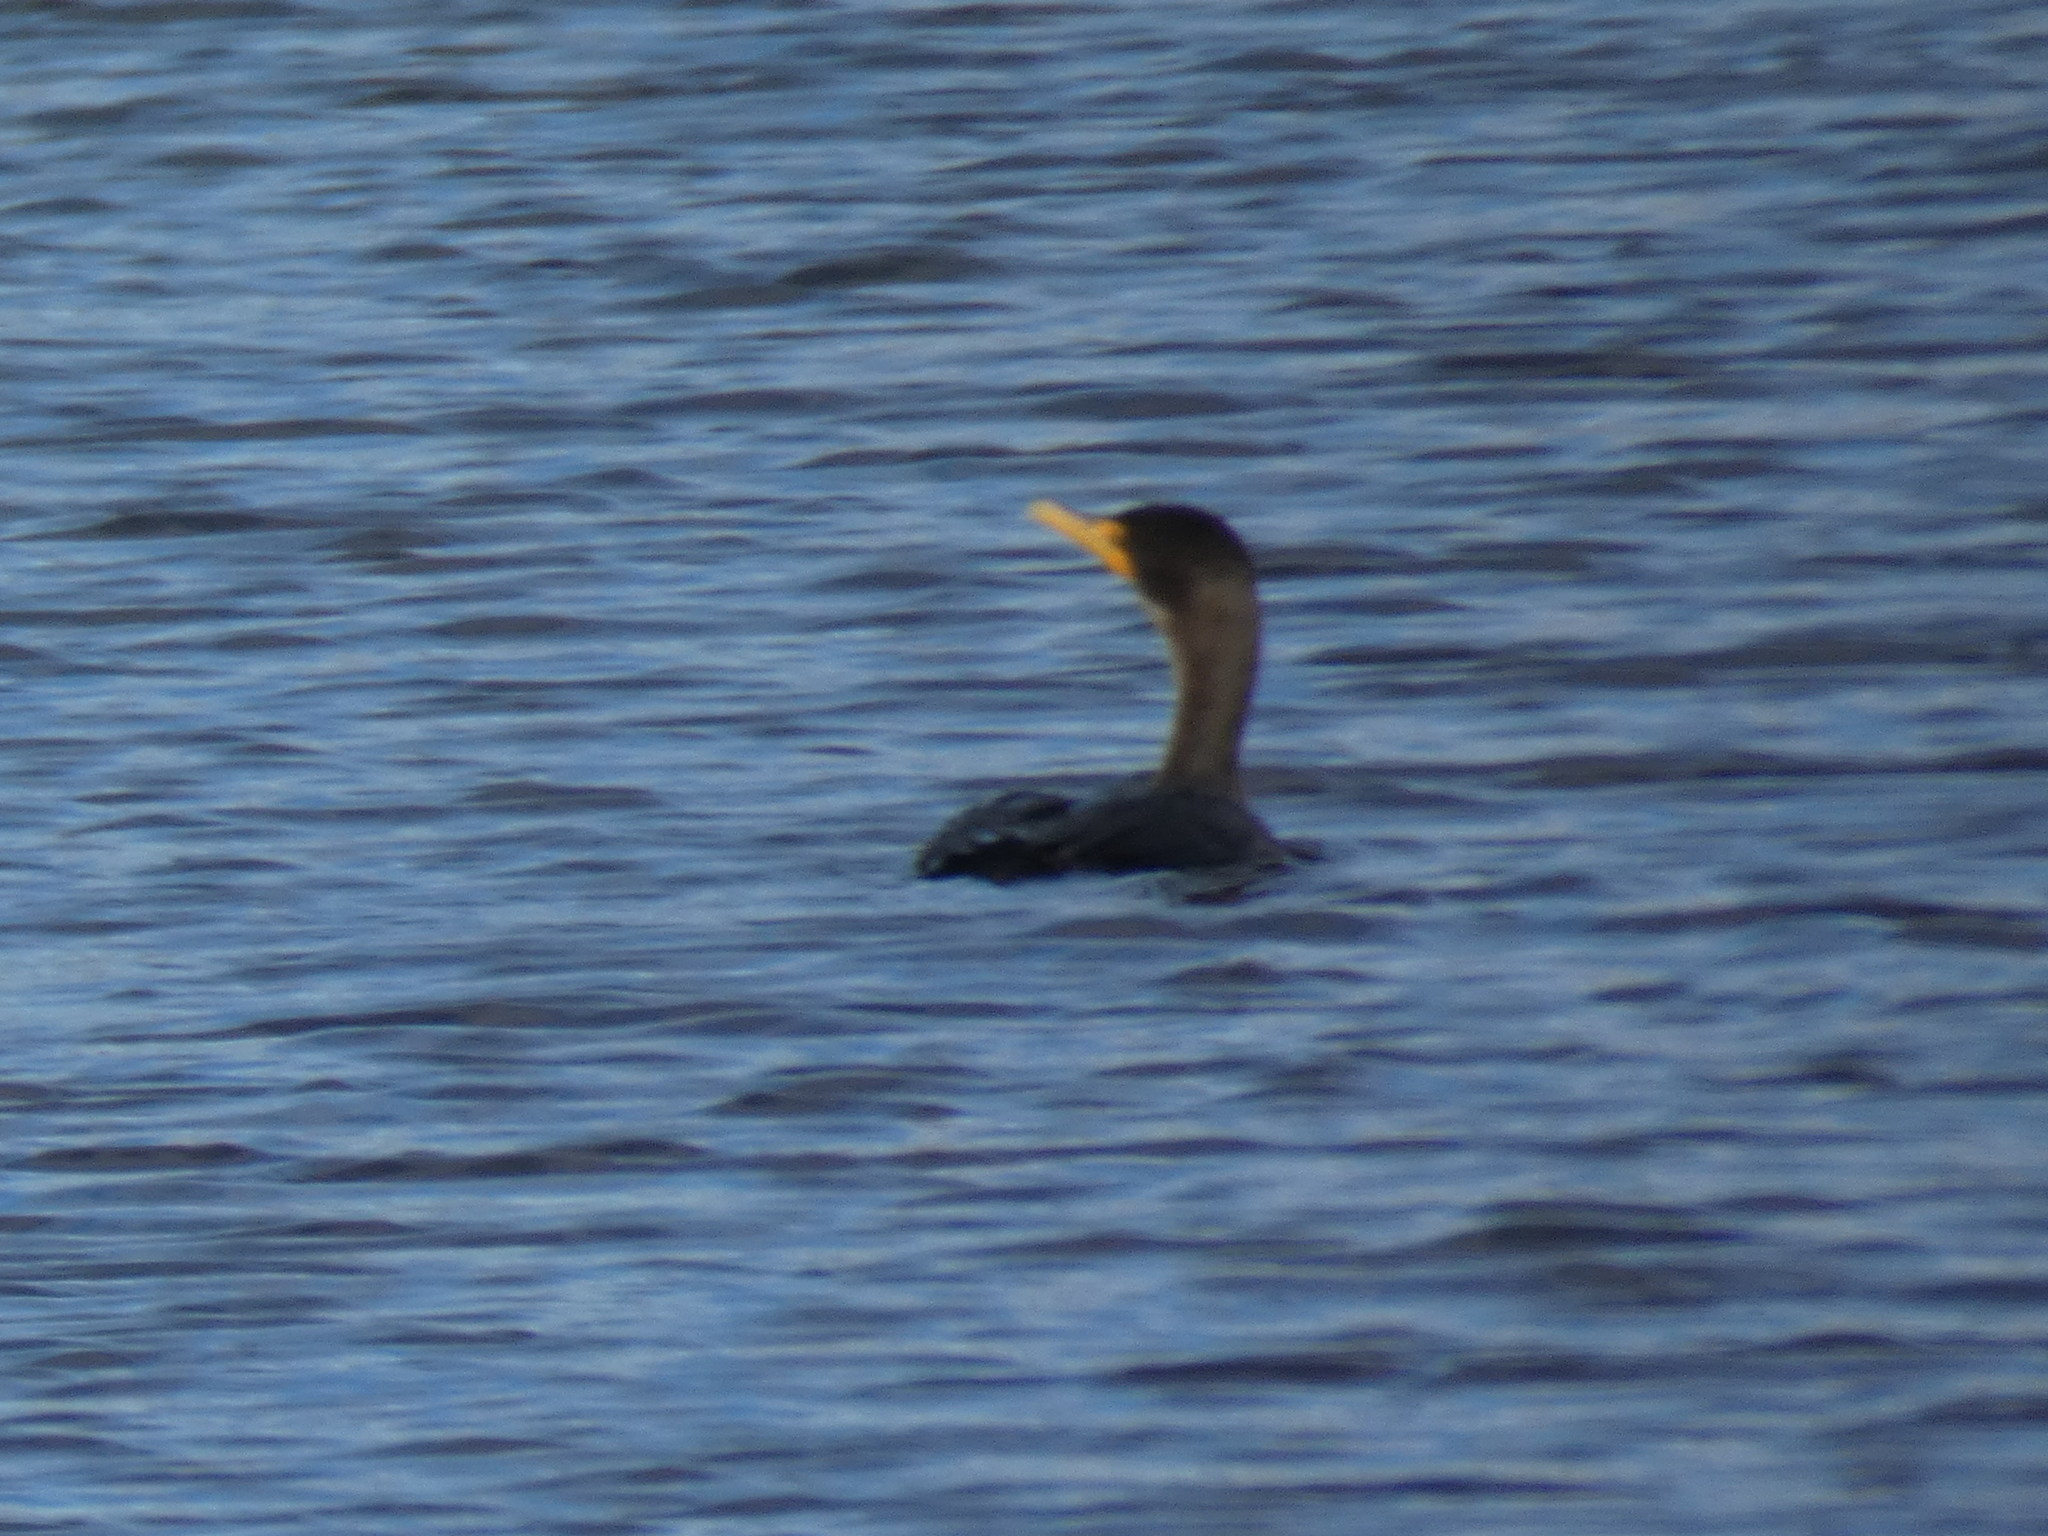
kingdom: Animalia
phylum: Chordata
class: Aves
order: Suliformes
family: Phalacrocoracidae
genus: Phalacrocorax
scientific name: Phalacrocorax auritus
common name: Double-crested cormorant
